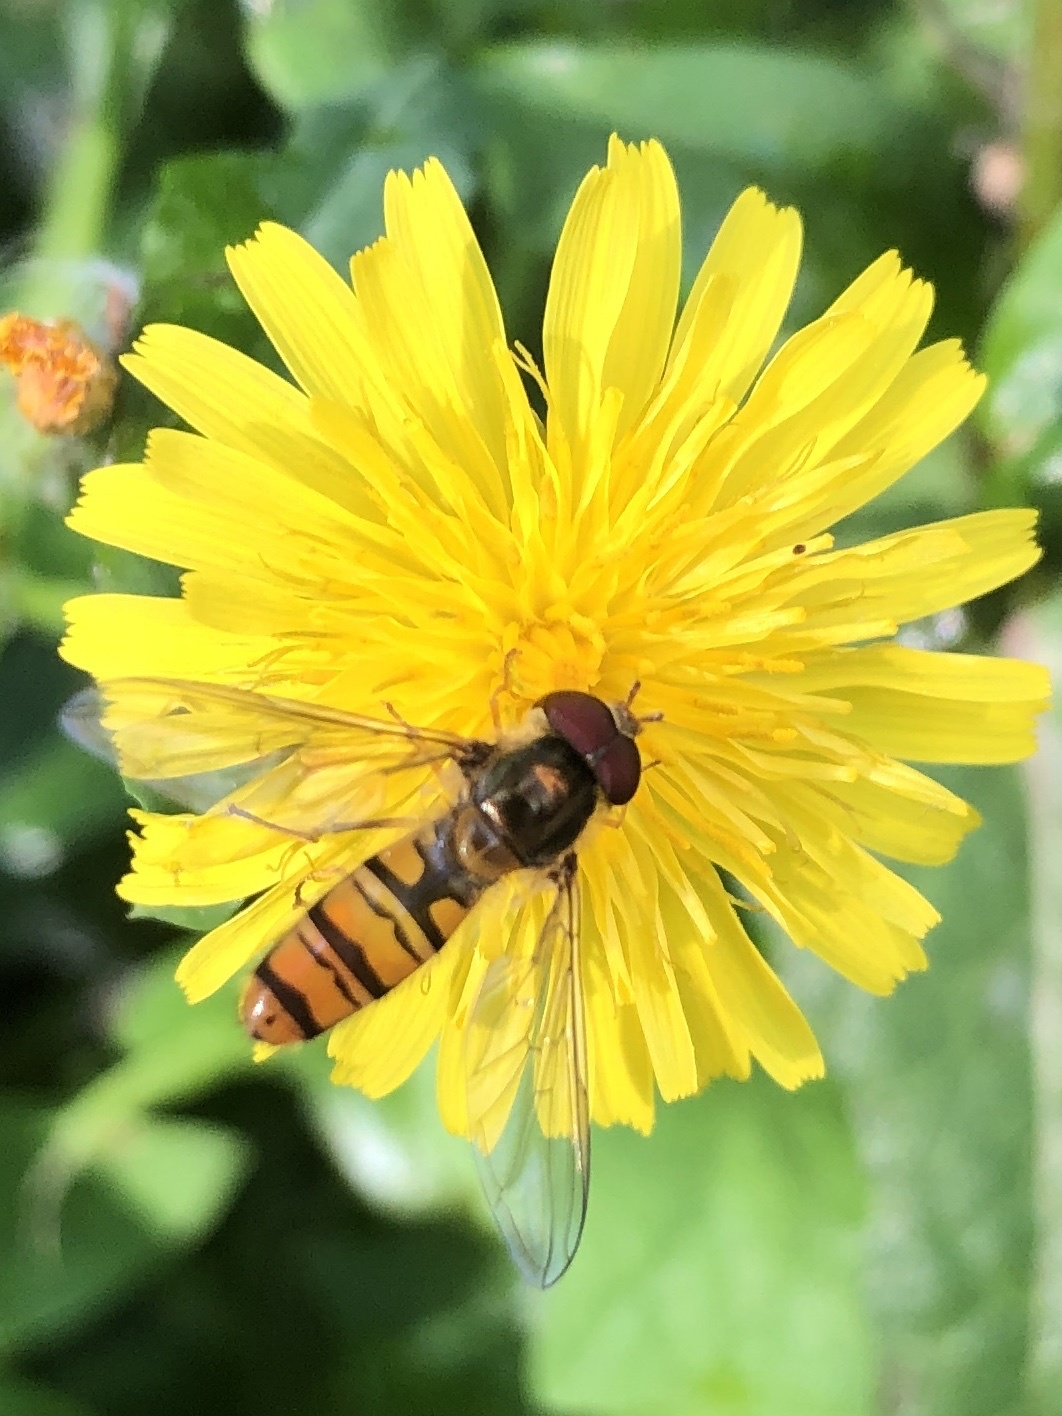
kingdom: Animalia
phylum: Arthropoda
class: Insecta
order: Diptera
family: Syrphidae
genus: Episyrphus
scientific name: Episyrphus balteatus
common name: Marmalade hoverfly
